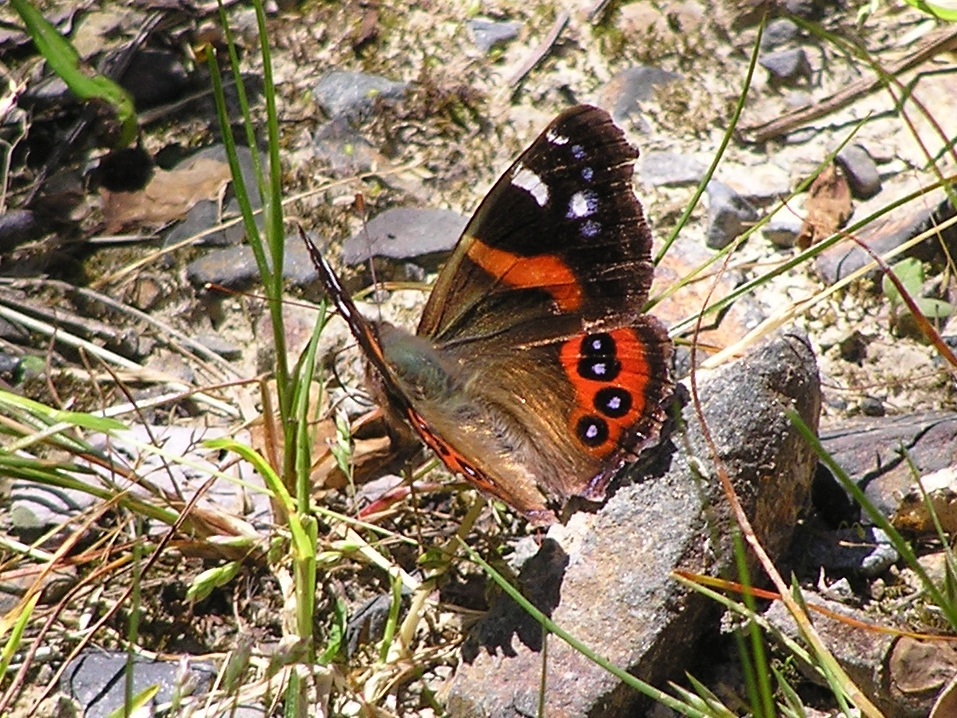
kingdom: Animalia
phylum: Arthropoda
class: Insecta
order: Lepidoptera
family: Nymphalidae
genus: Vanessa
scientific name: Vanessa gonerilla
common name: New zealand red admiral
